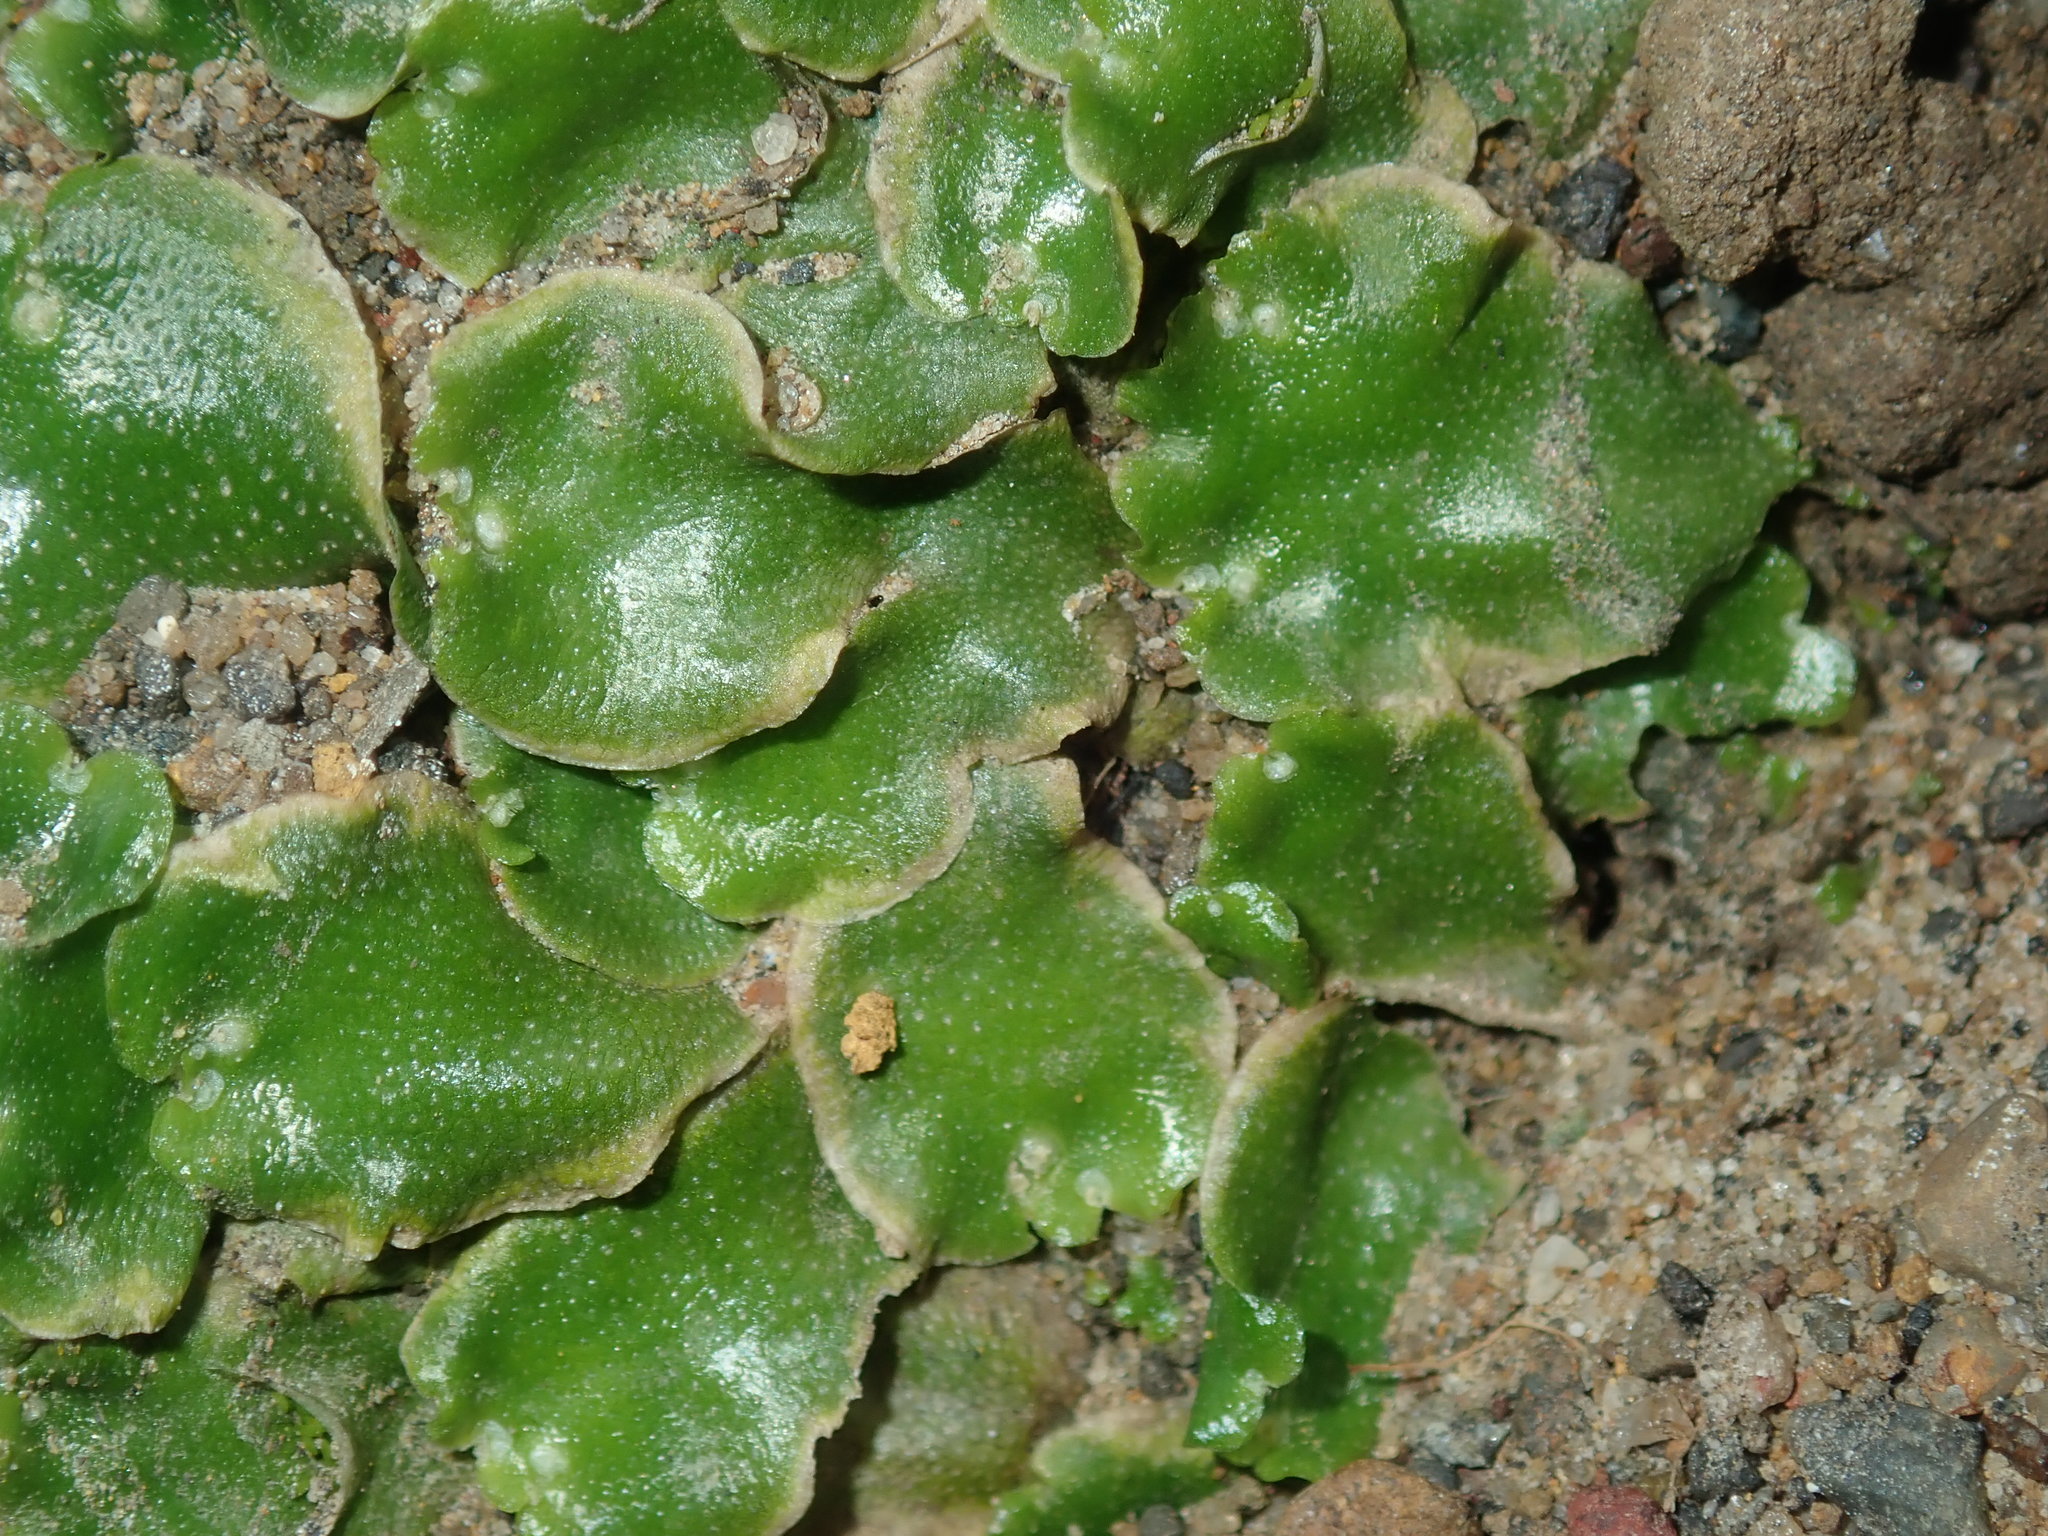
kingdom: Plantae
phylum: Marchantiophyta
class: Marchantiopsida
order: Lunulariales
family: Lunulariaceae
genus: Lunularia
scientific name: Lunularia cruciata
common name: Crescent-cup liverwort
